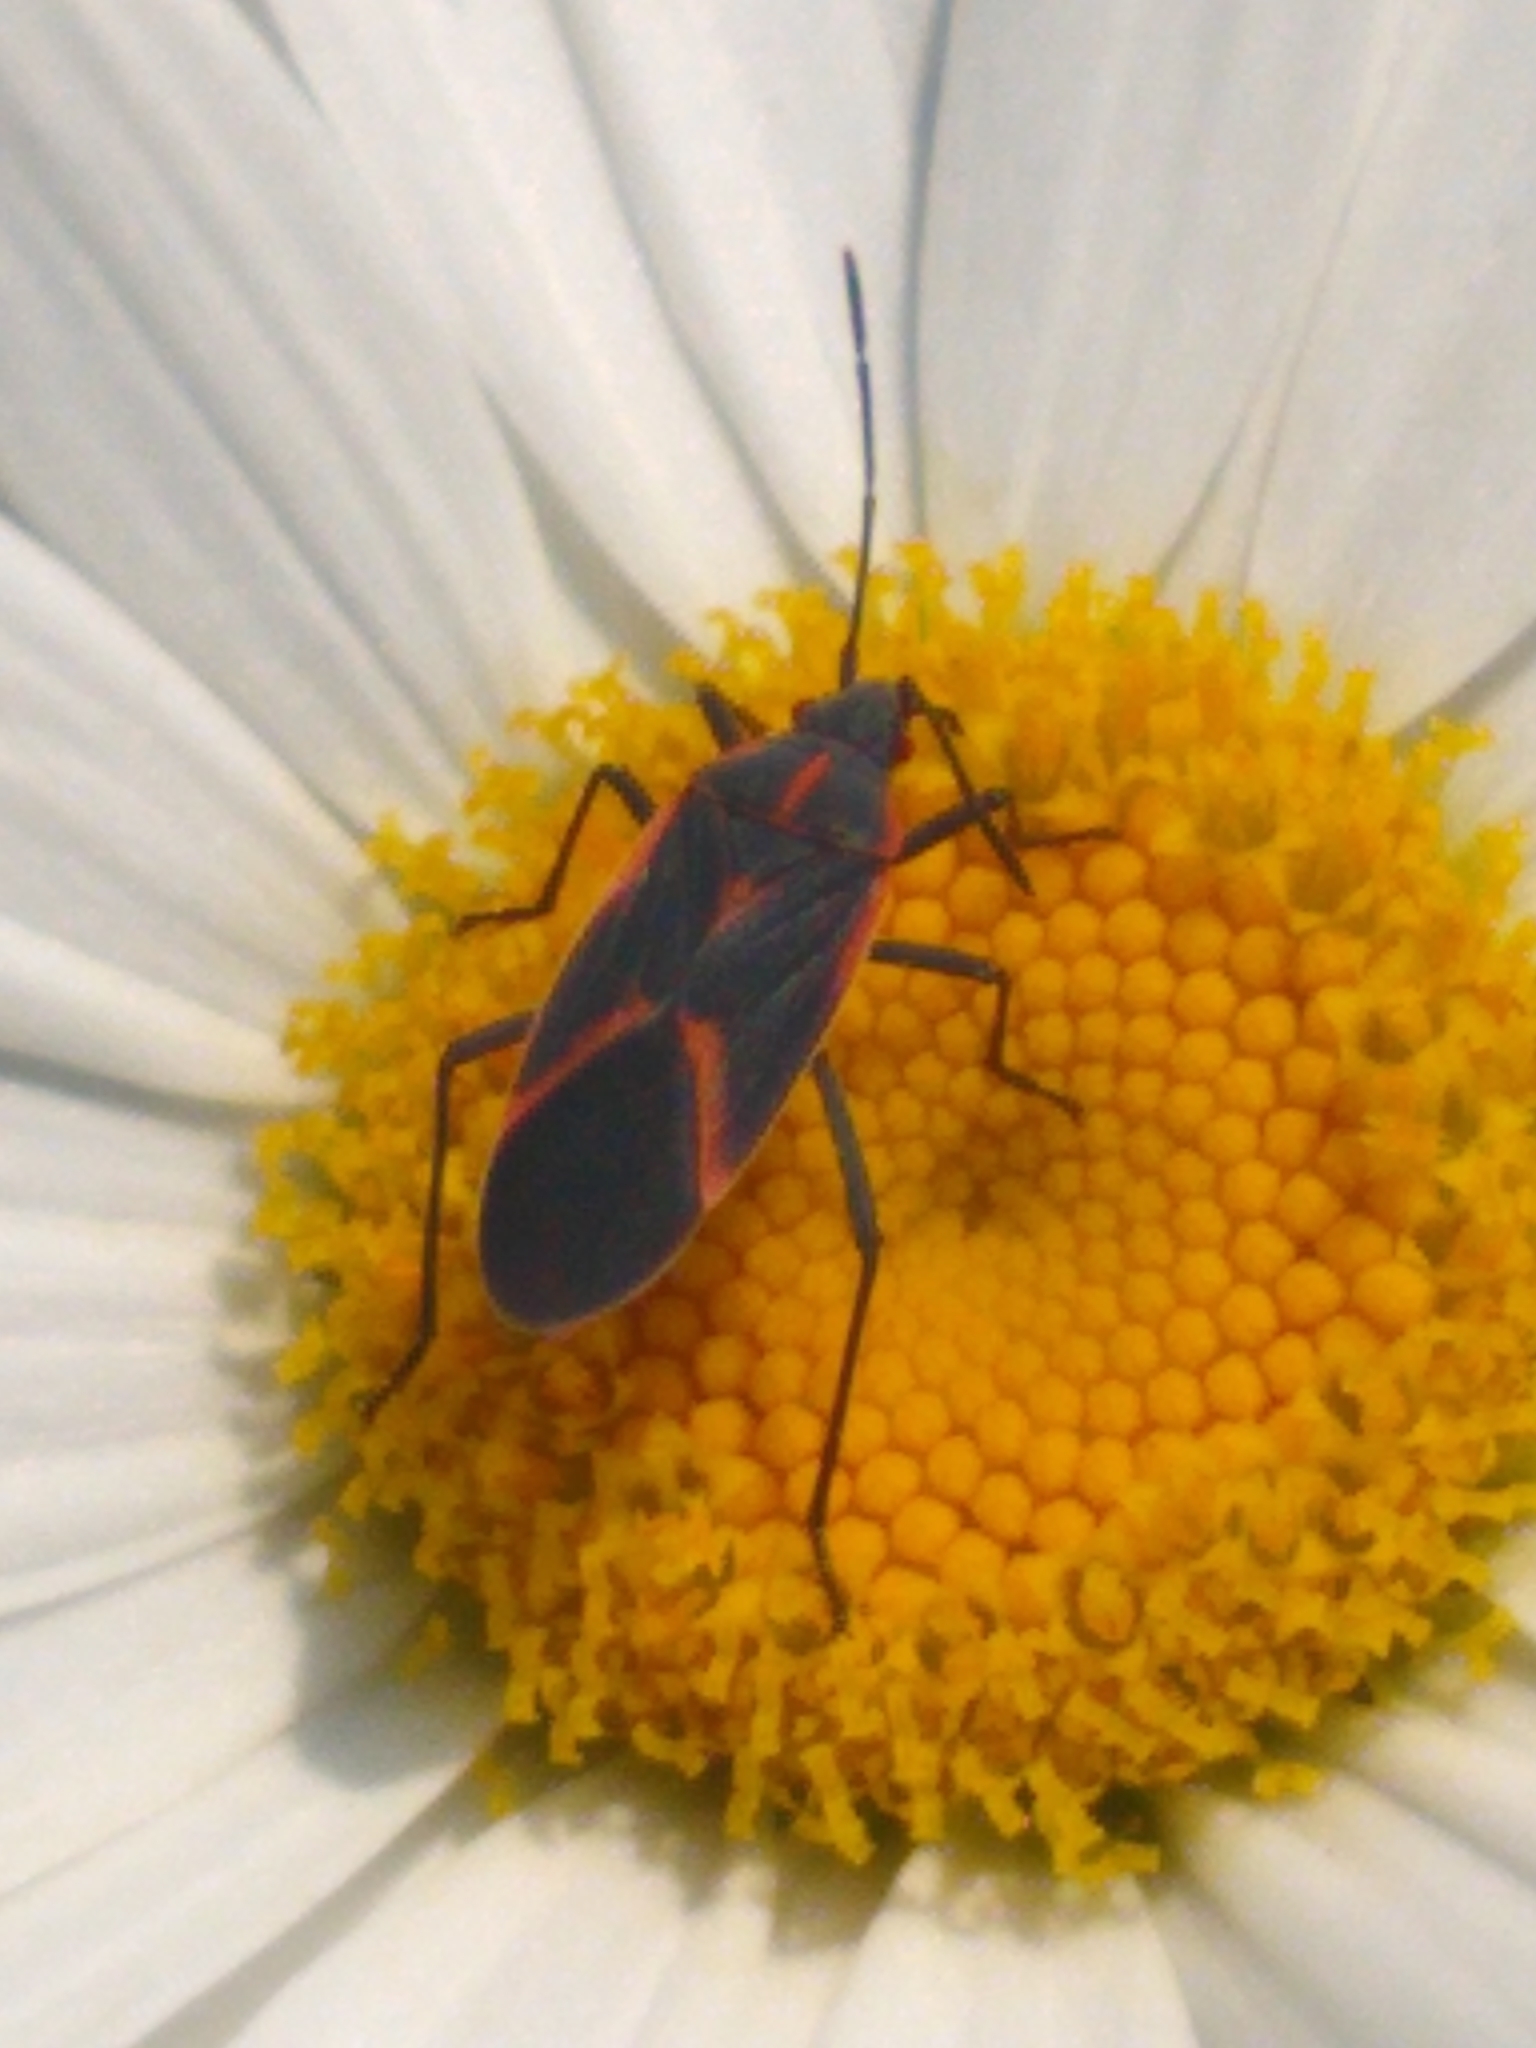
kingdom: Animalia
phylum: Arthropoda
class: Insecta
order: Hemiptera
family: Rhopalidae
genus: Boisea
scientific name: Boisea trivittata
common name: Boxelder bug
